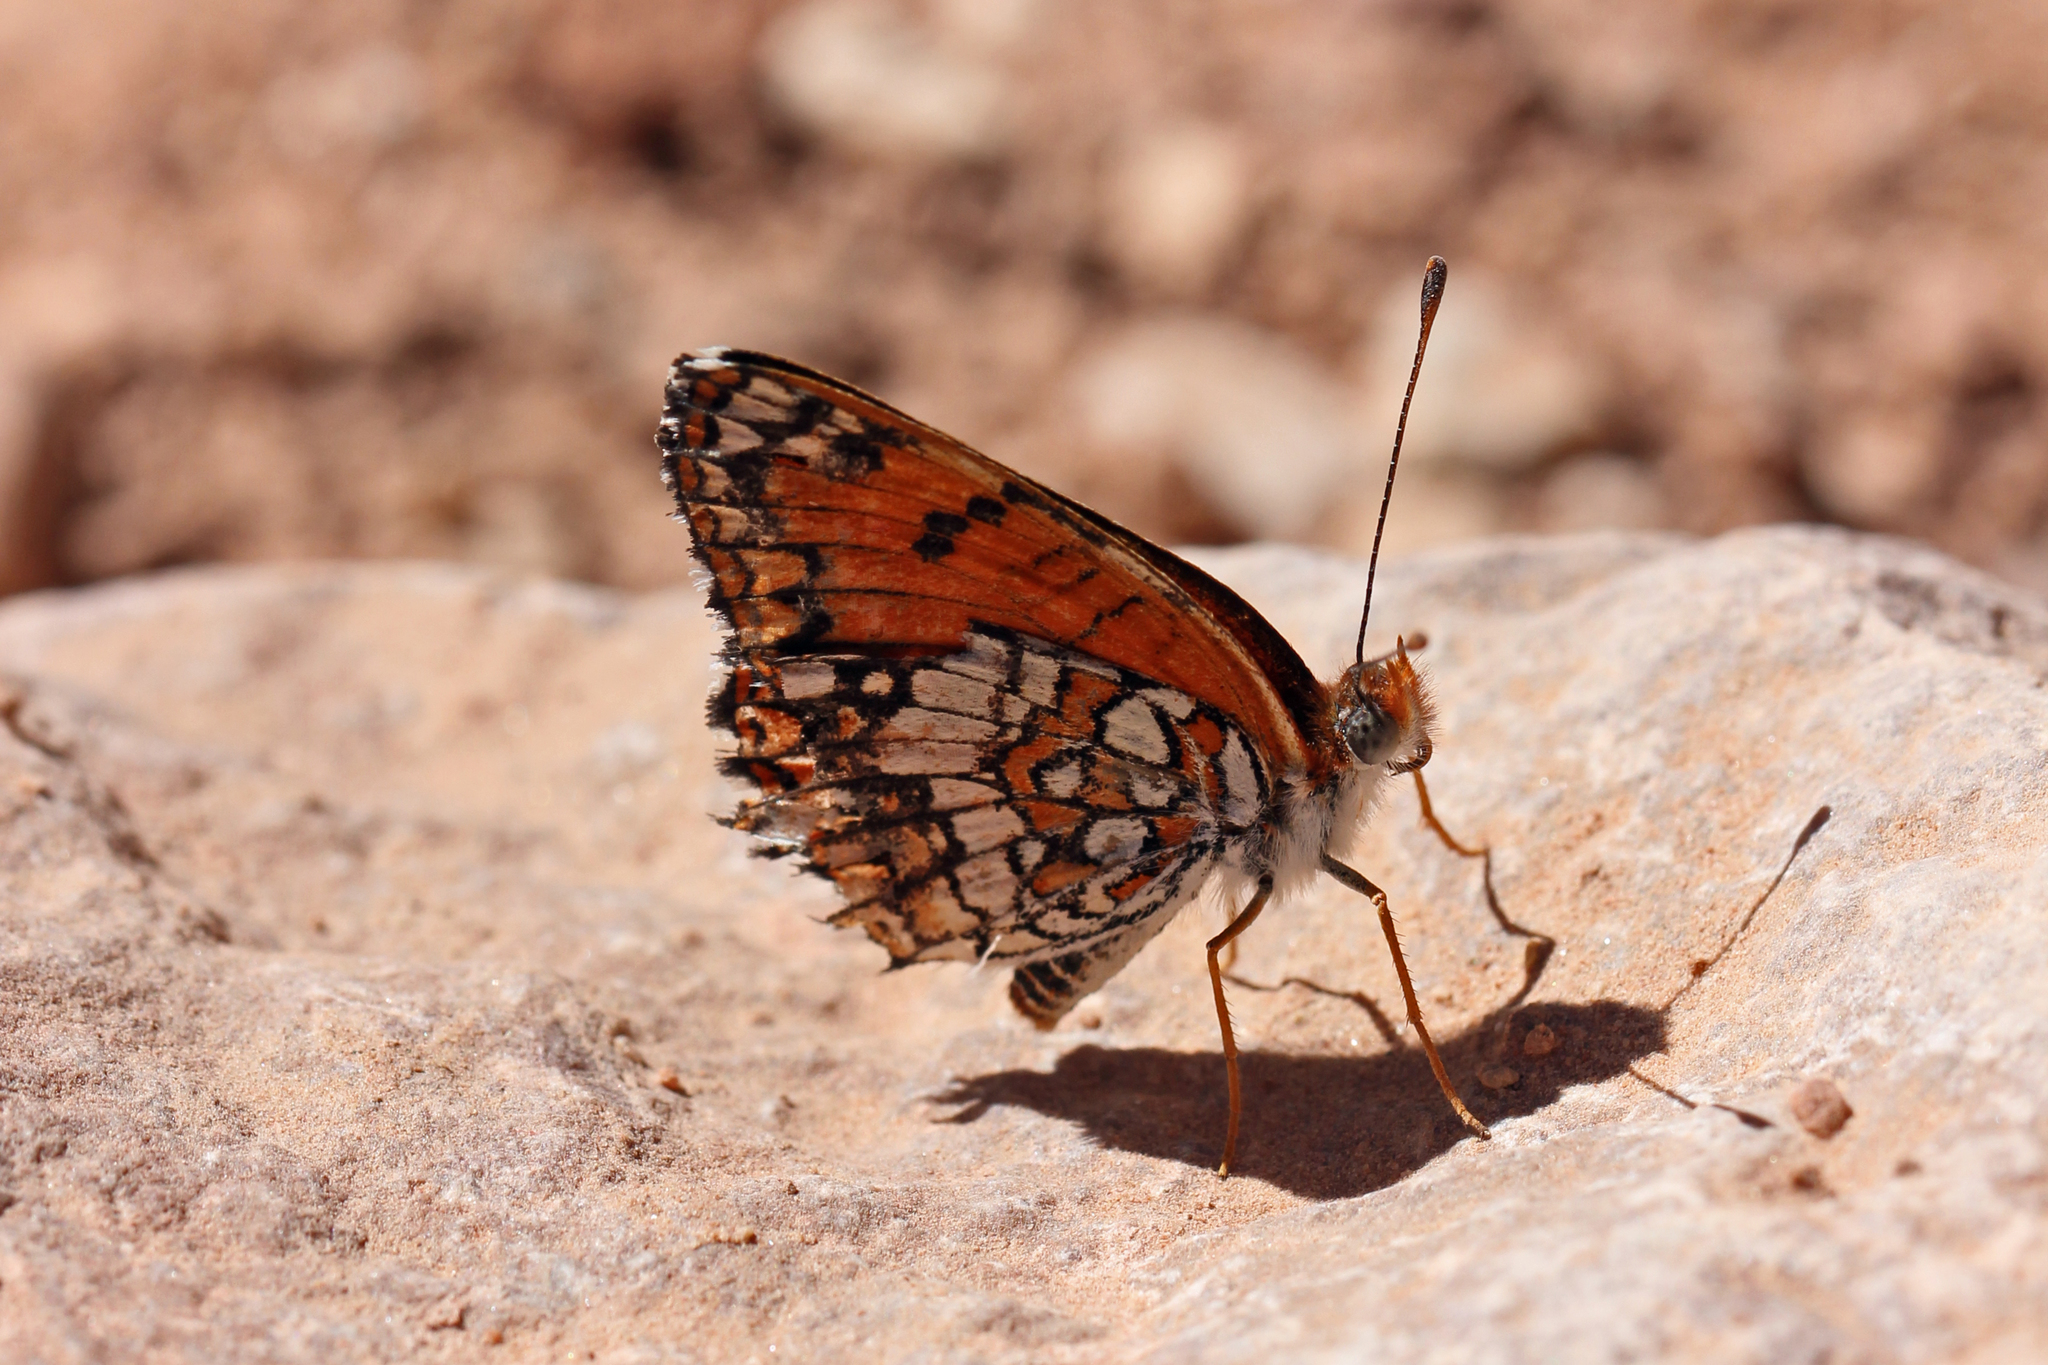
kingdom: Animalia
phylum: Arthropoda
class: Insecta
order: Lepidoptera
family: Nymphalidae
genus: Chlosyne
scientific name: Chlosyne acastus
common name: Sagebrush checkerspot
